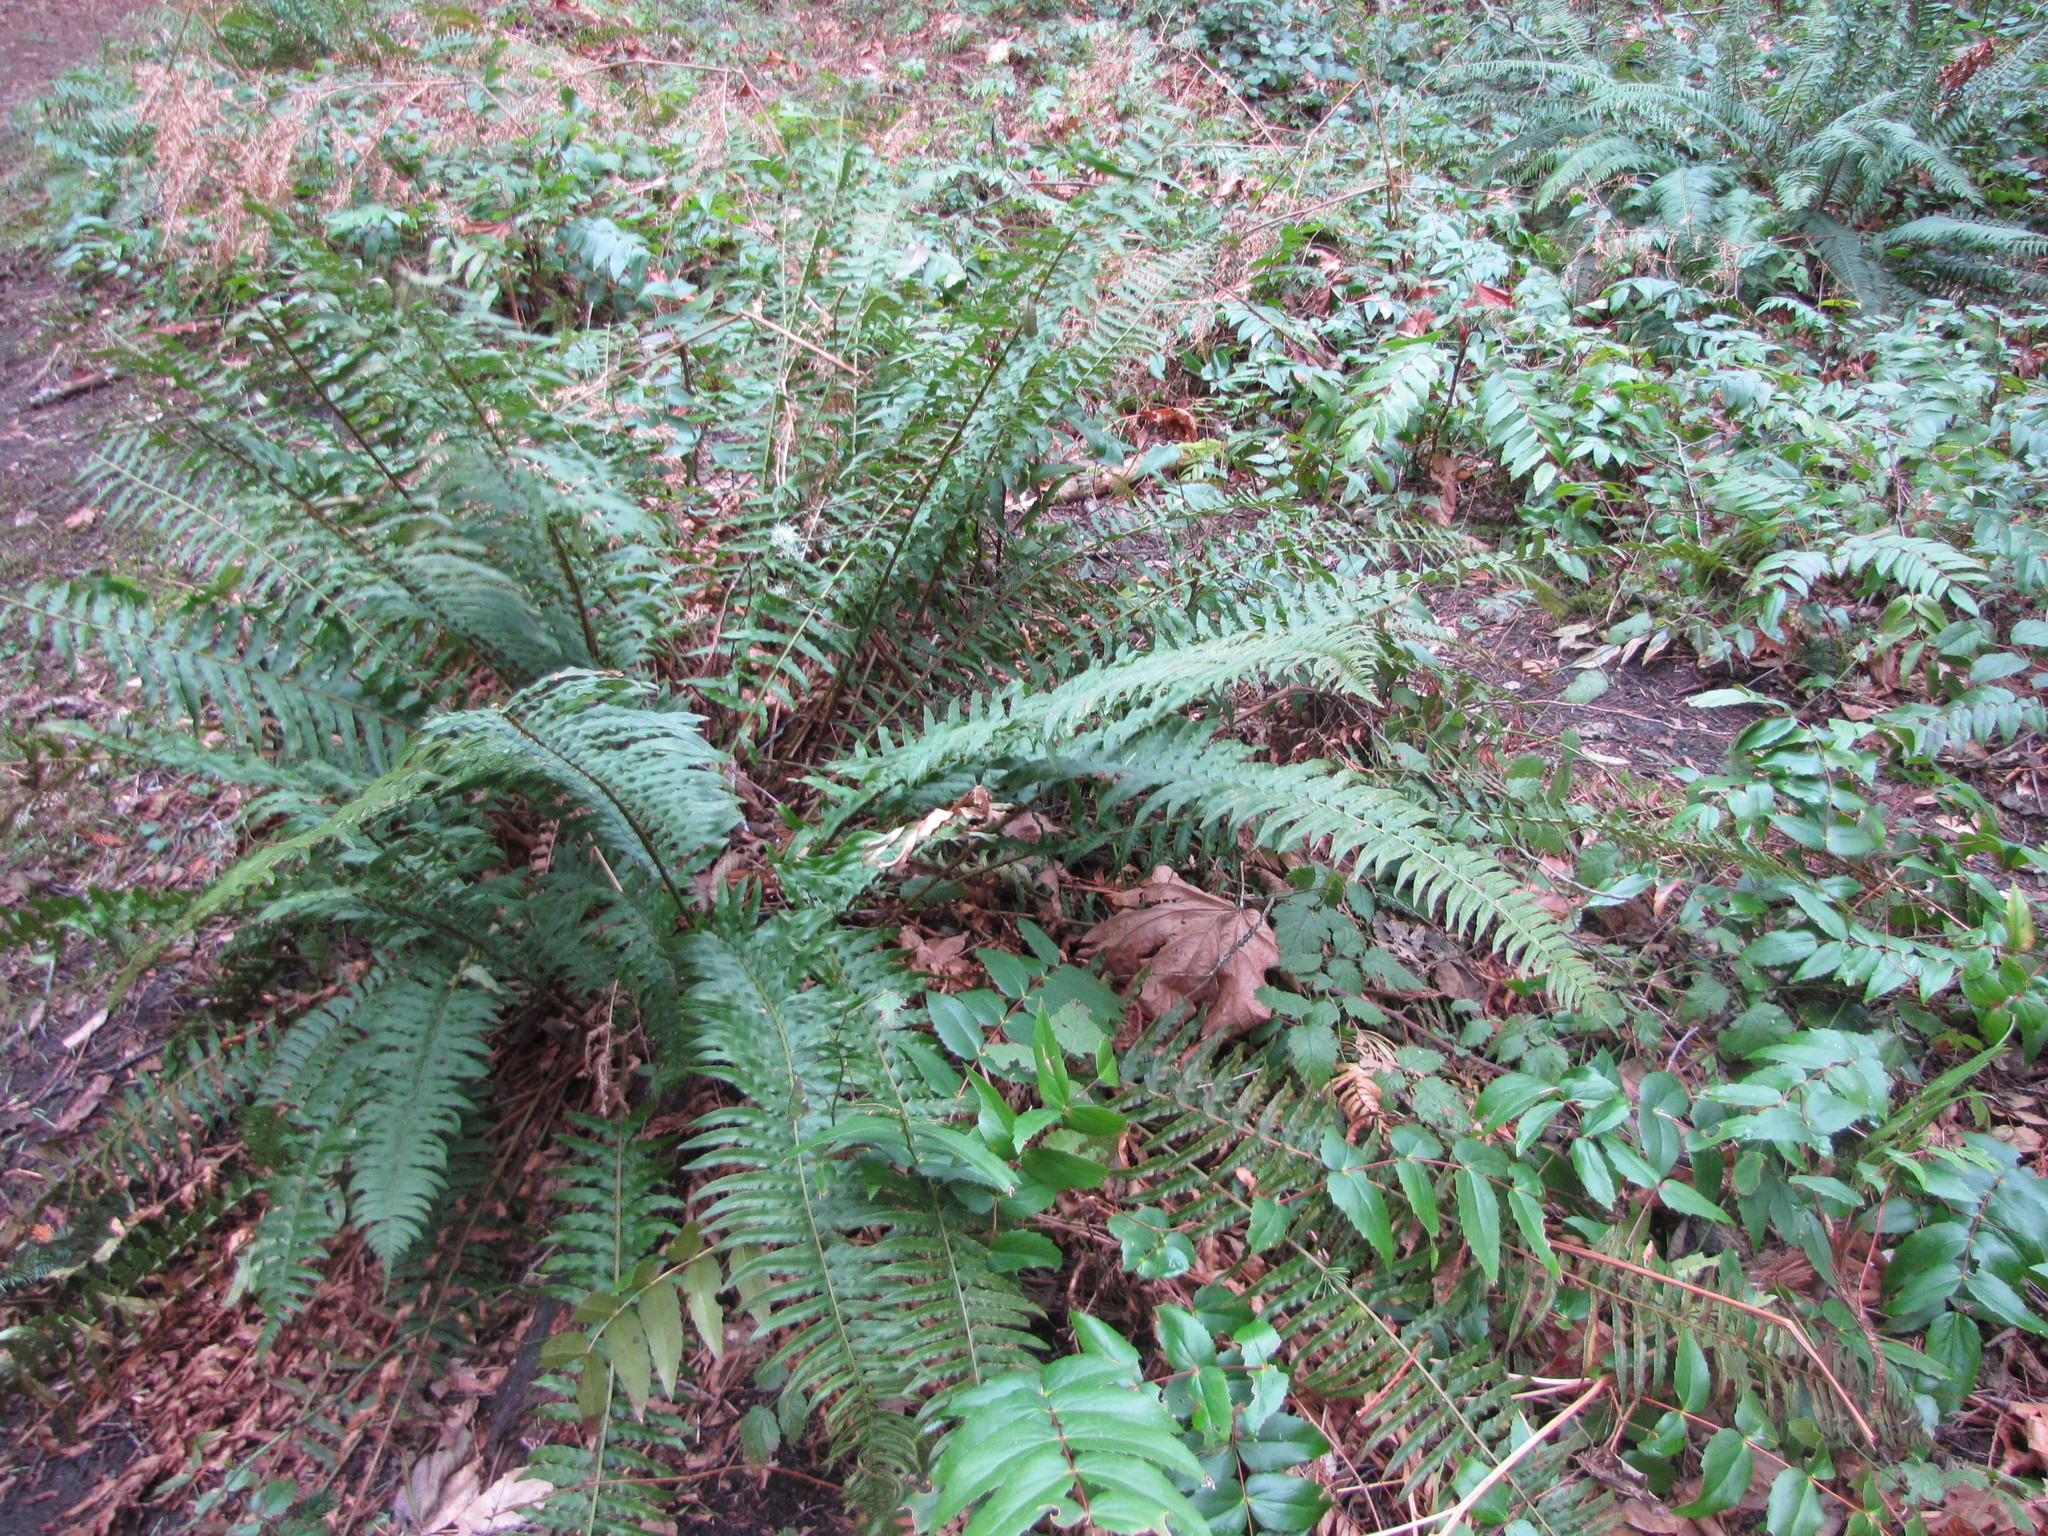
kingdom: Plantae
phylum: Tracheophyta
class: Polypodiopsida
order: Polypodiales
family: Dryopteridaceae
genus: Polystichum
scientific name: Polystichum munitum
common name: Western sword-fern
